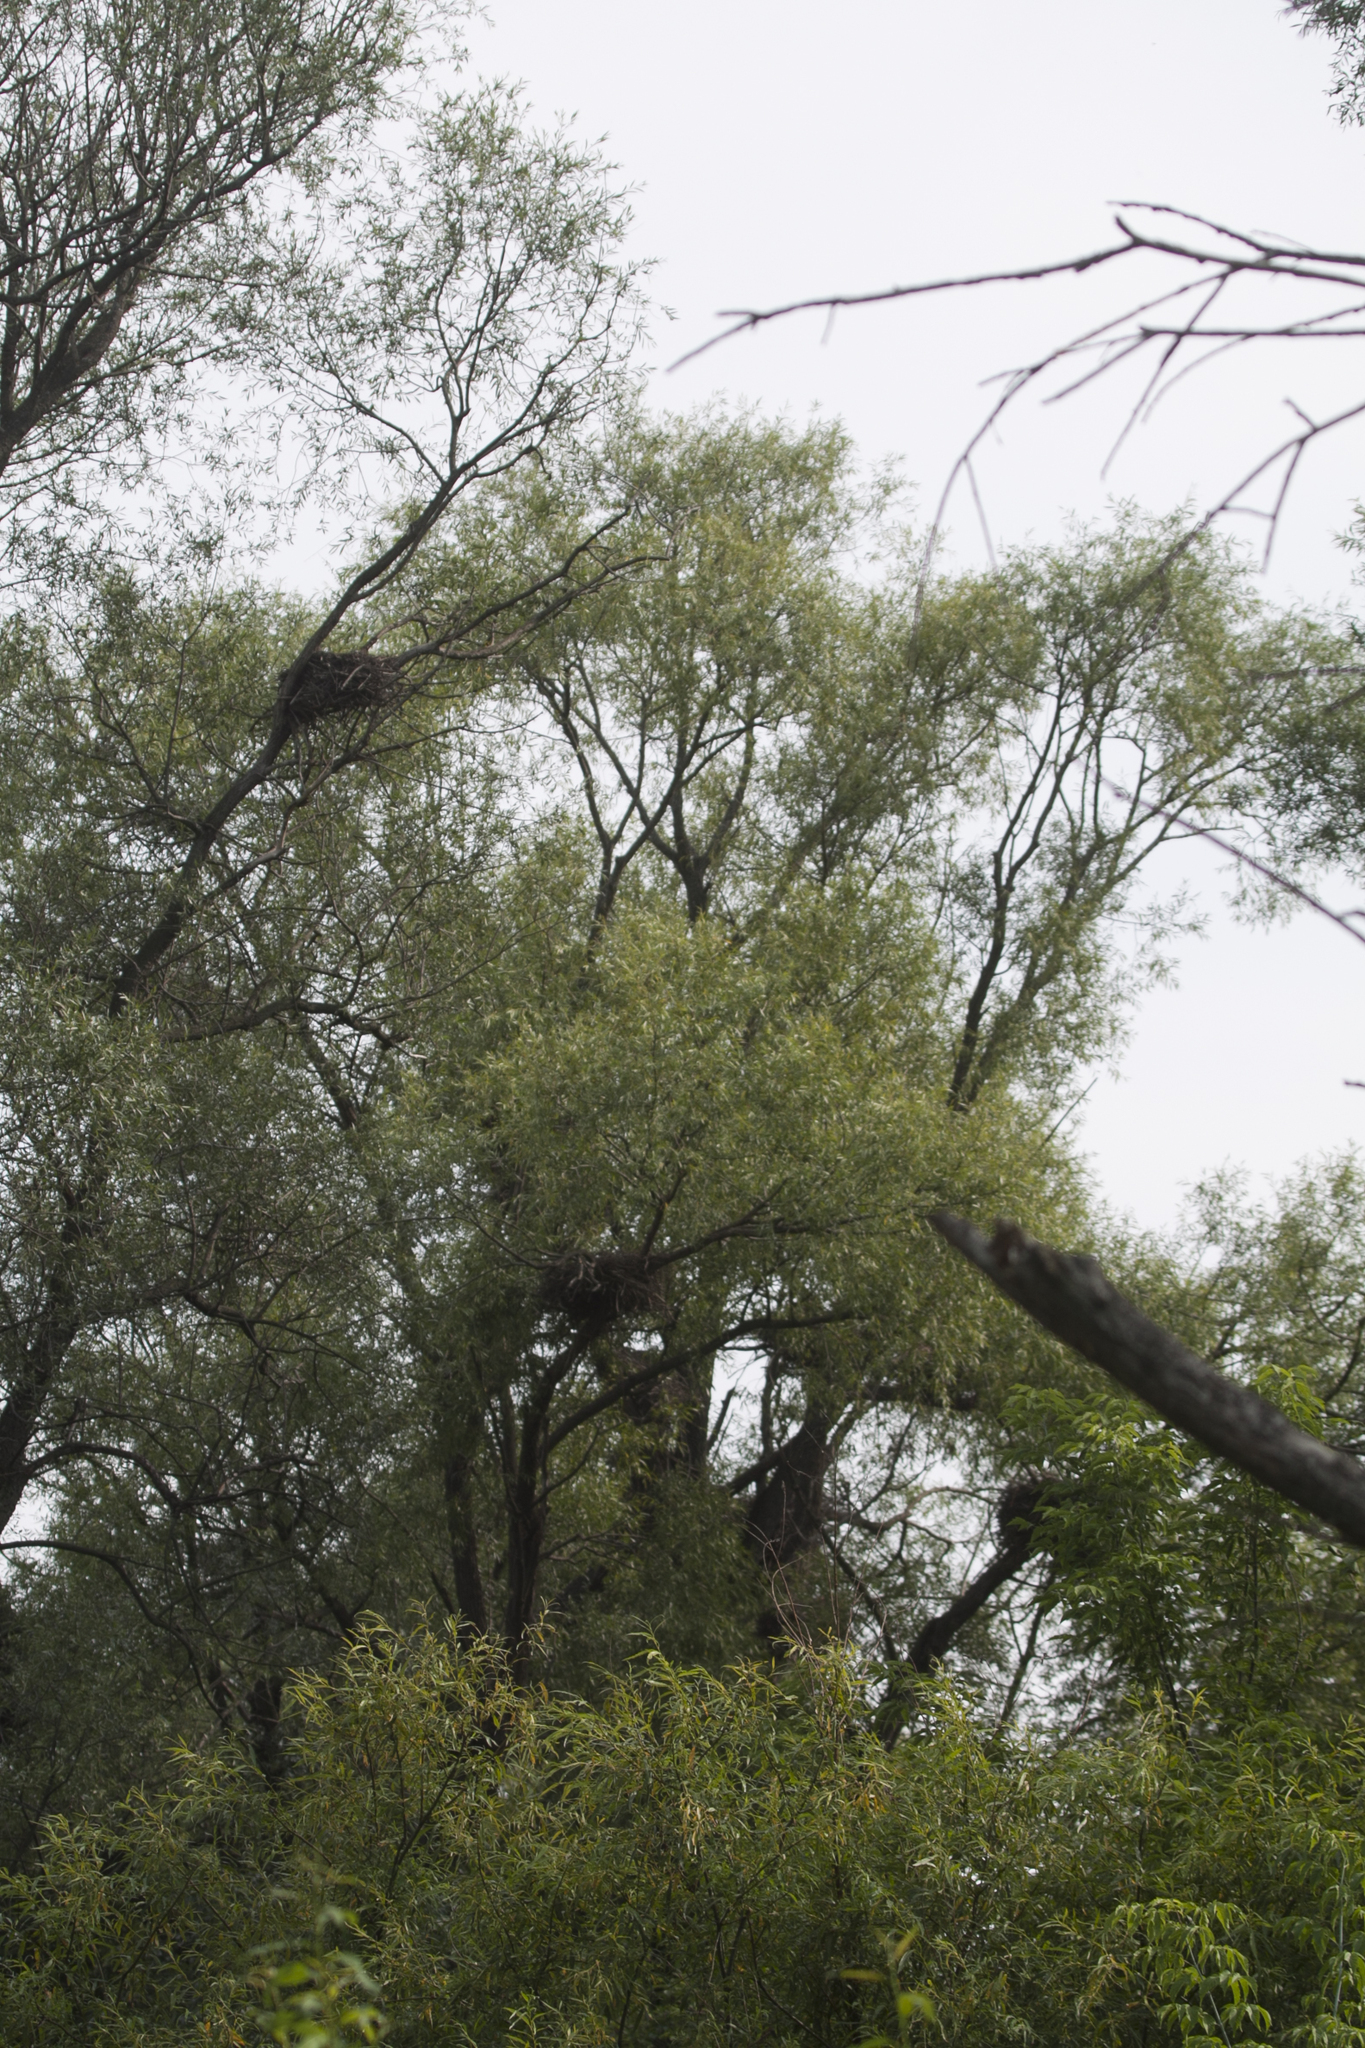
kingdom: Animalia
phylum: Chordata
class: Aves
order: Pelecaniformes
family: Ardeidae
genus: Ardea
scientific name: Ardea cinerea
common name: Grey heron
